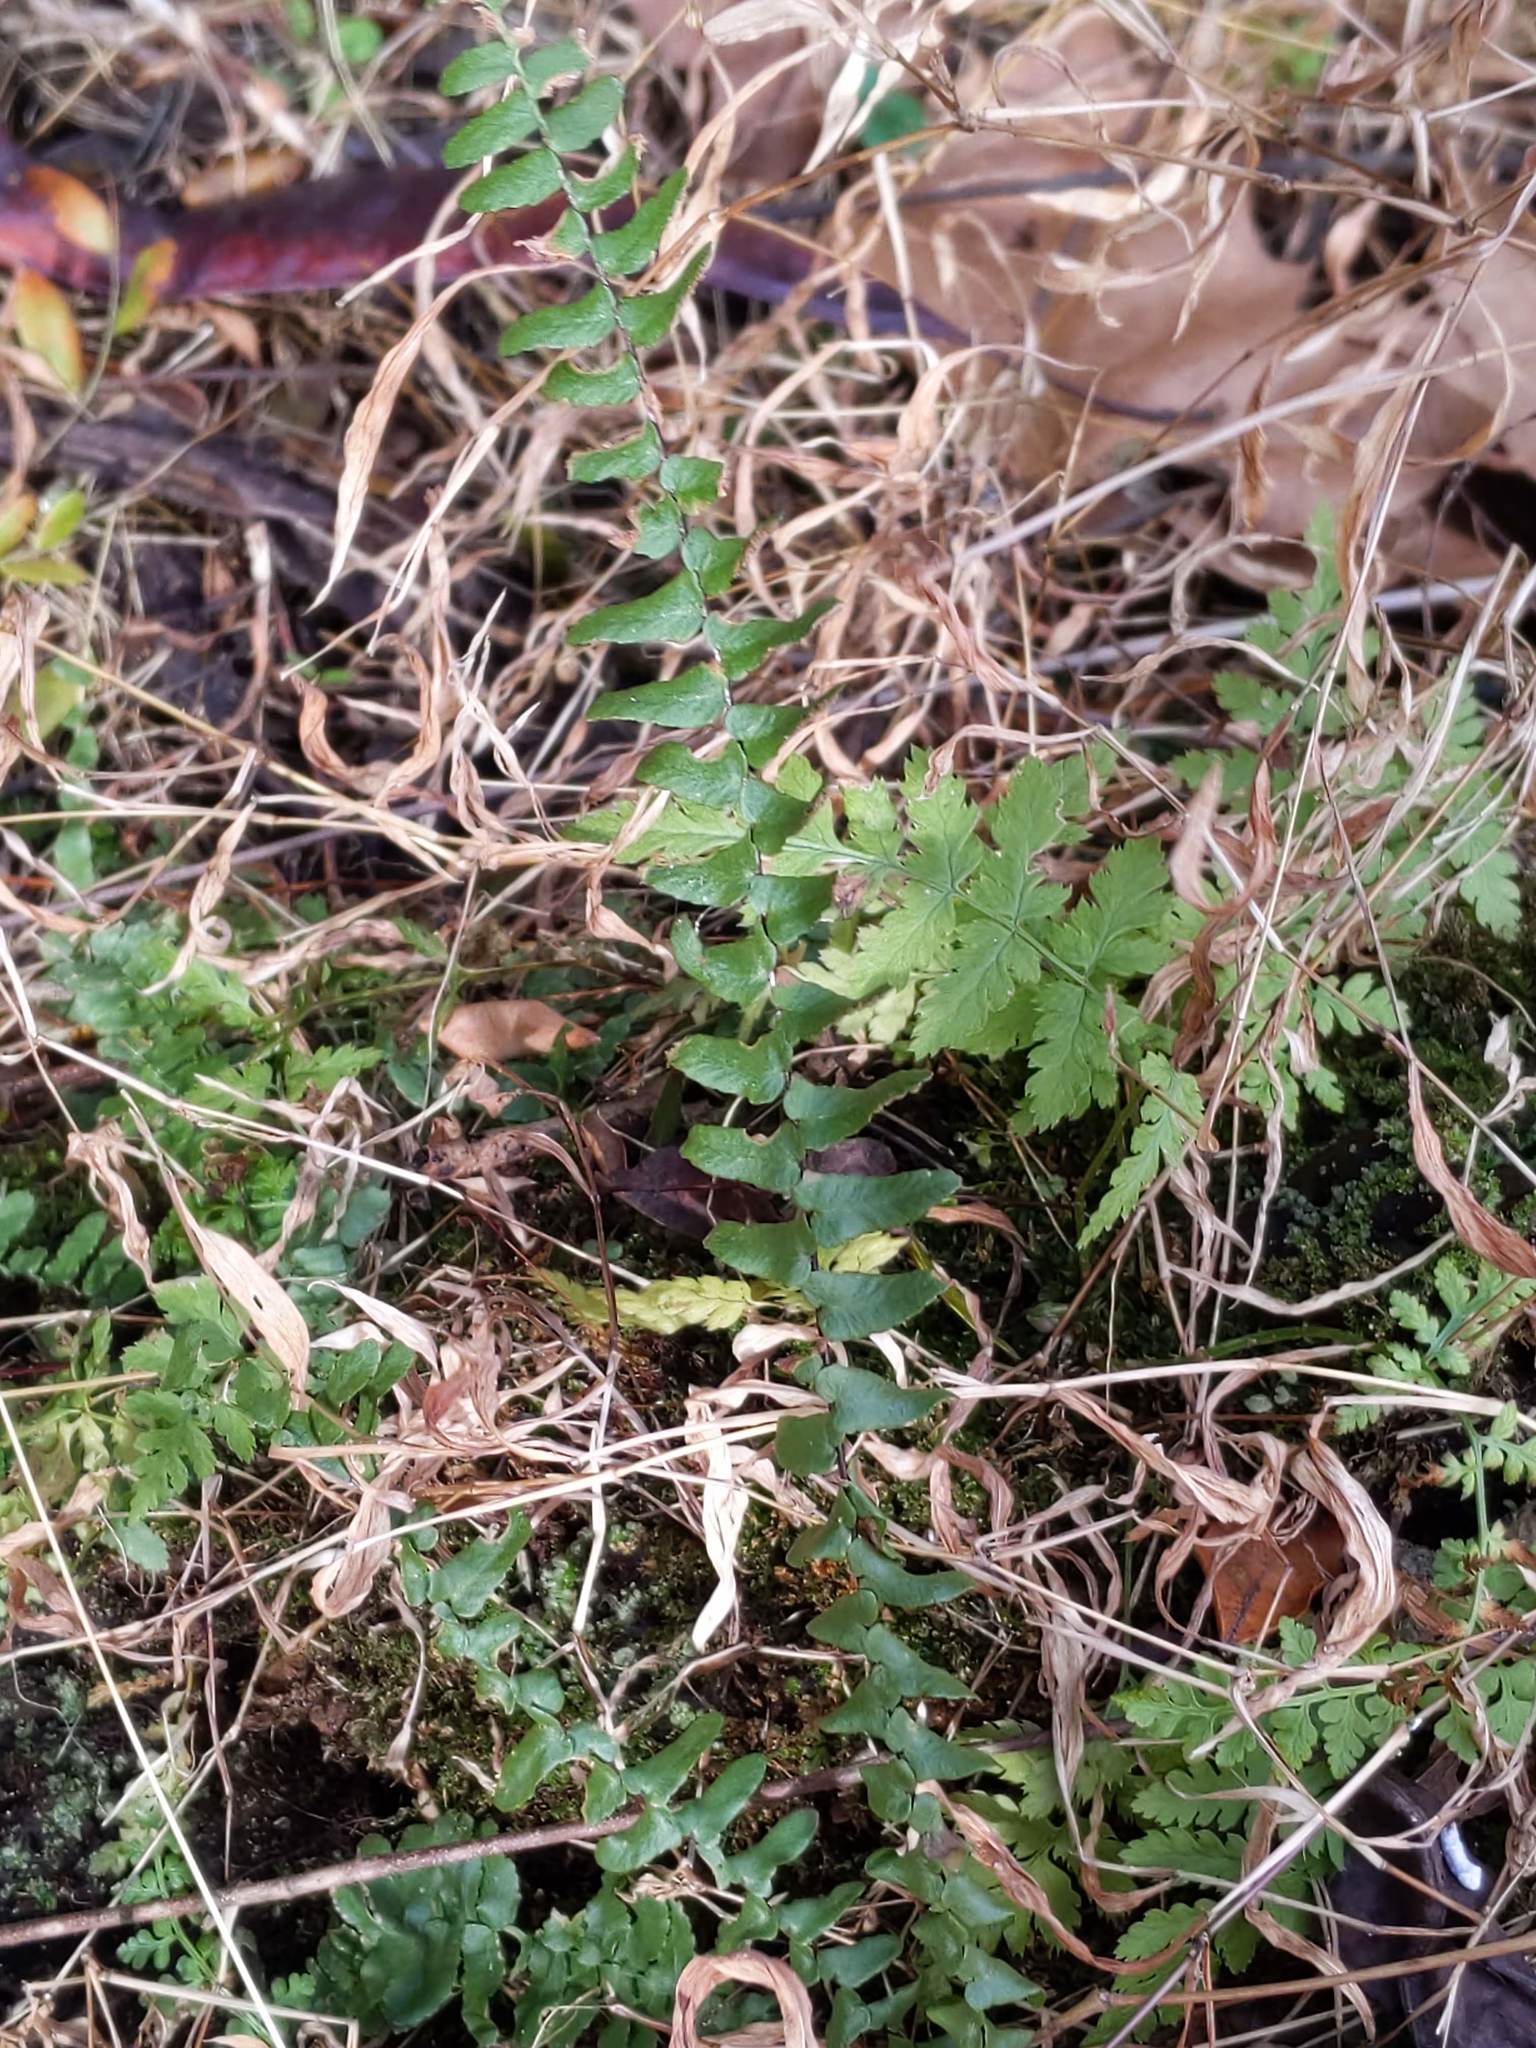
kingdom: Plantae
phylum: Tracheophyta
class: Polypodiopsida
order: Polypodiales
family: Aspleniaceae
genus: Asplenium
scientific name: Asplenium platyneuron
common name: Ebony spleenwort
